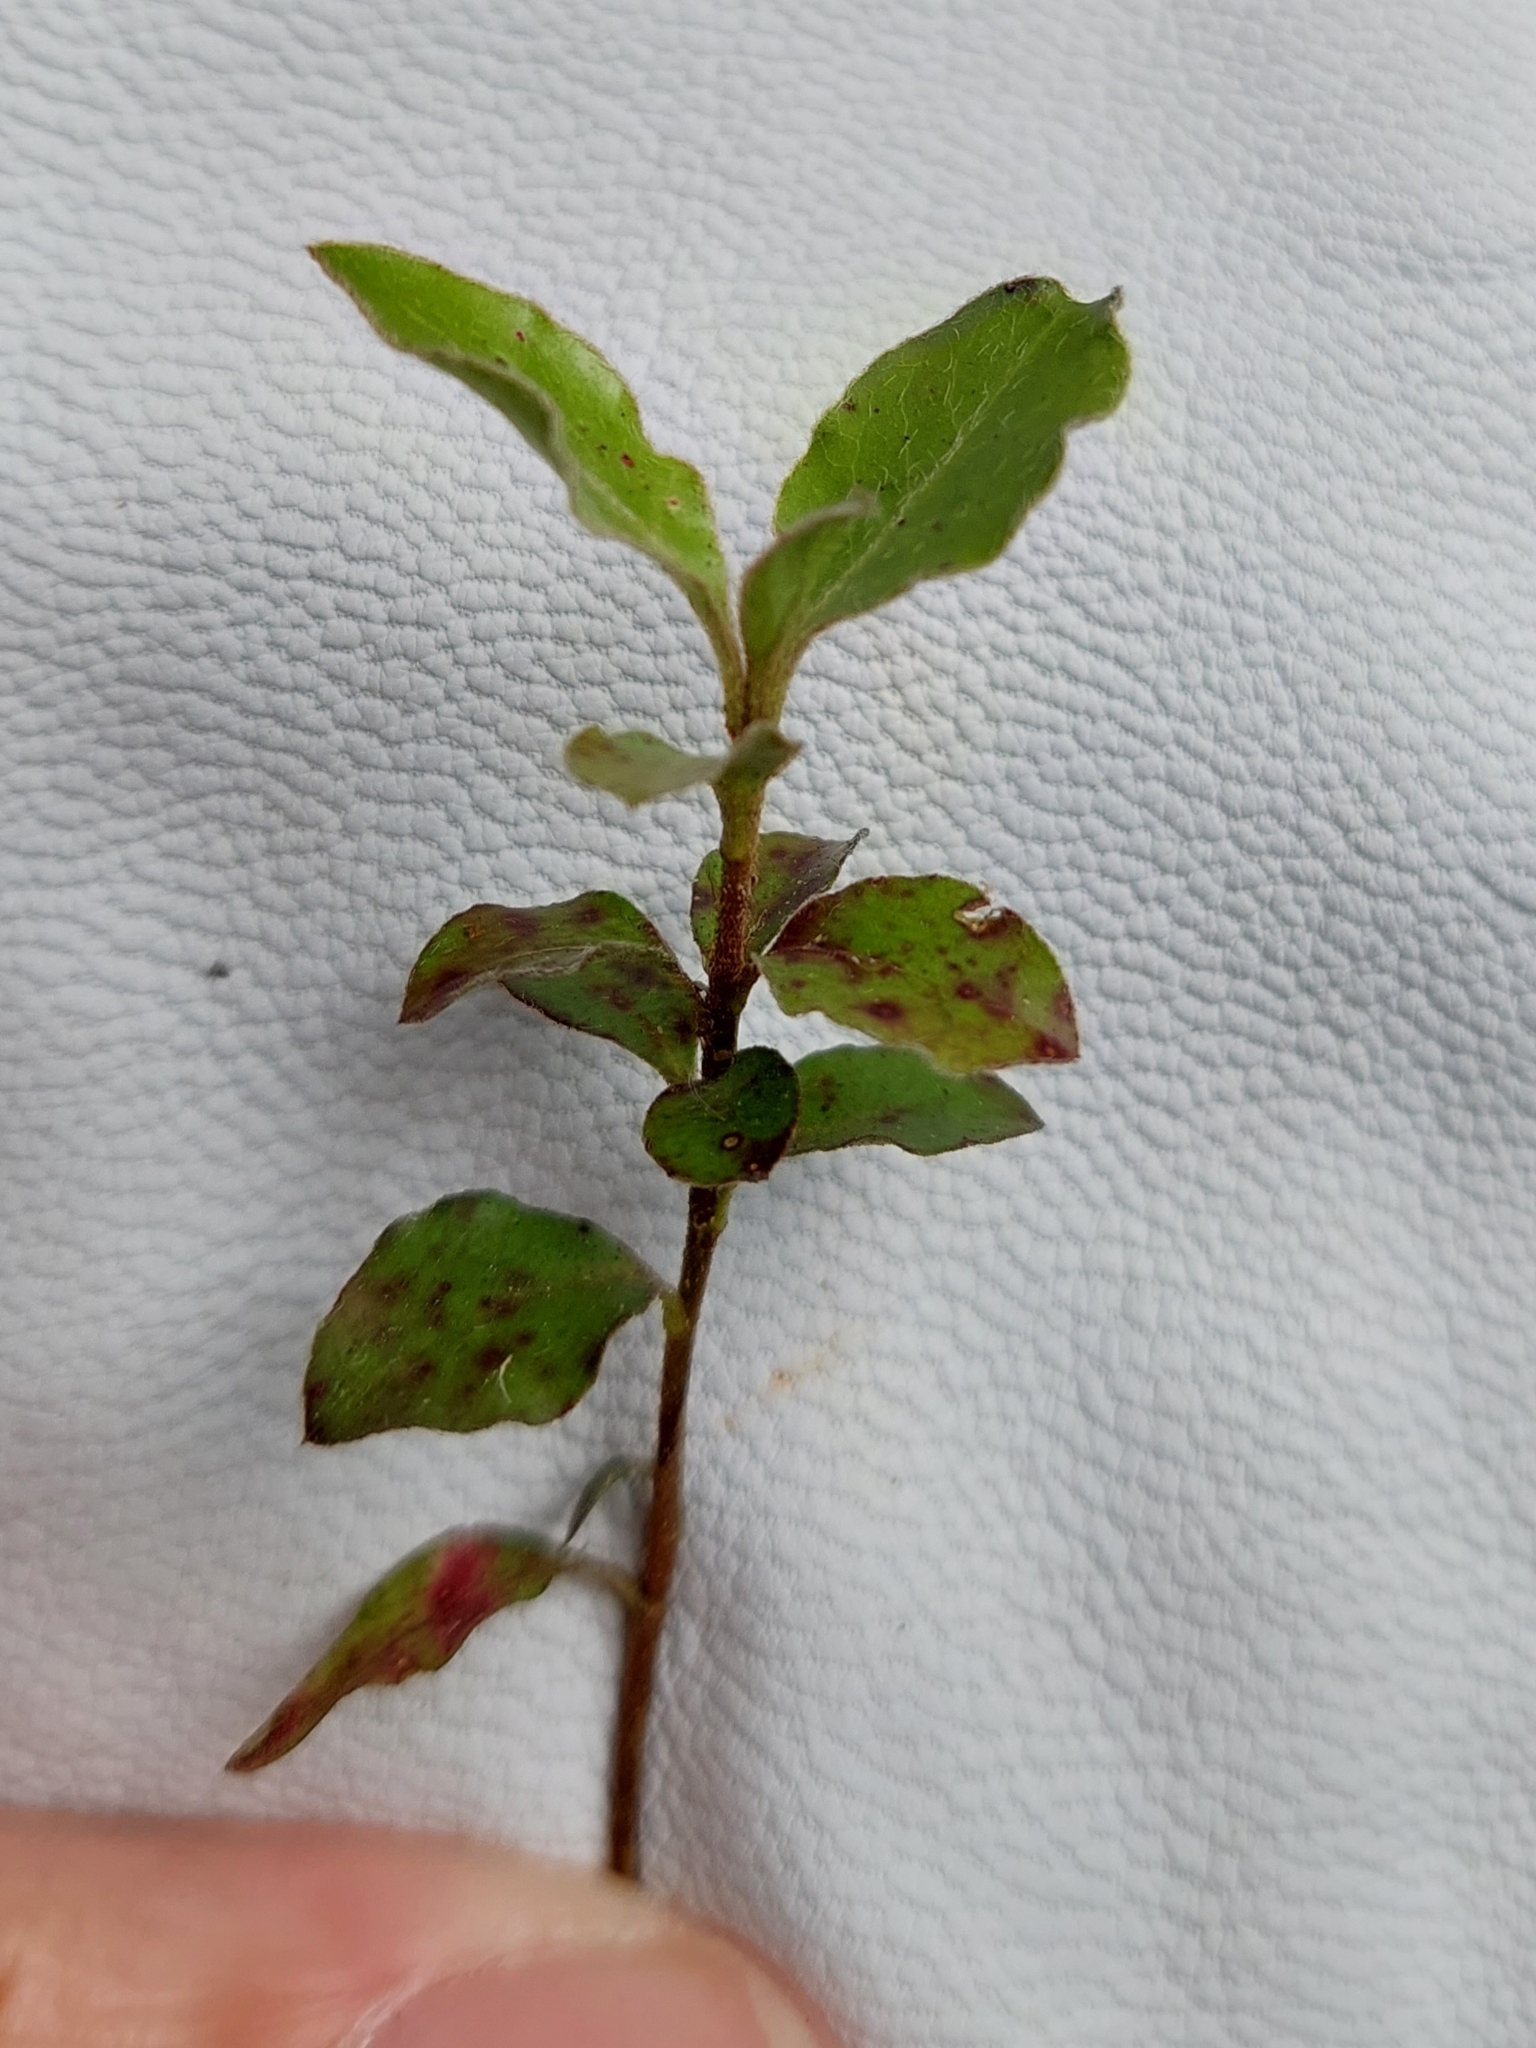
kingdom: Plantae
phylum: Tracheophyta
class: Magnoliopsida
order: Apiales
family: Pittosporaceae
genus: Pittosporum
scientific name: Pittosporum tenuifolium
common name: Kohuhu
